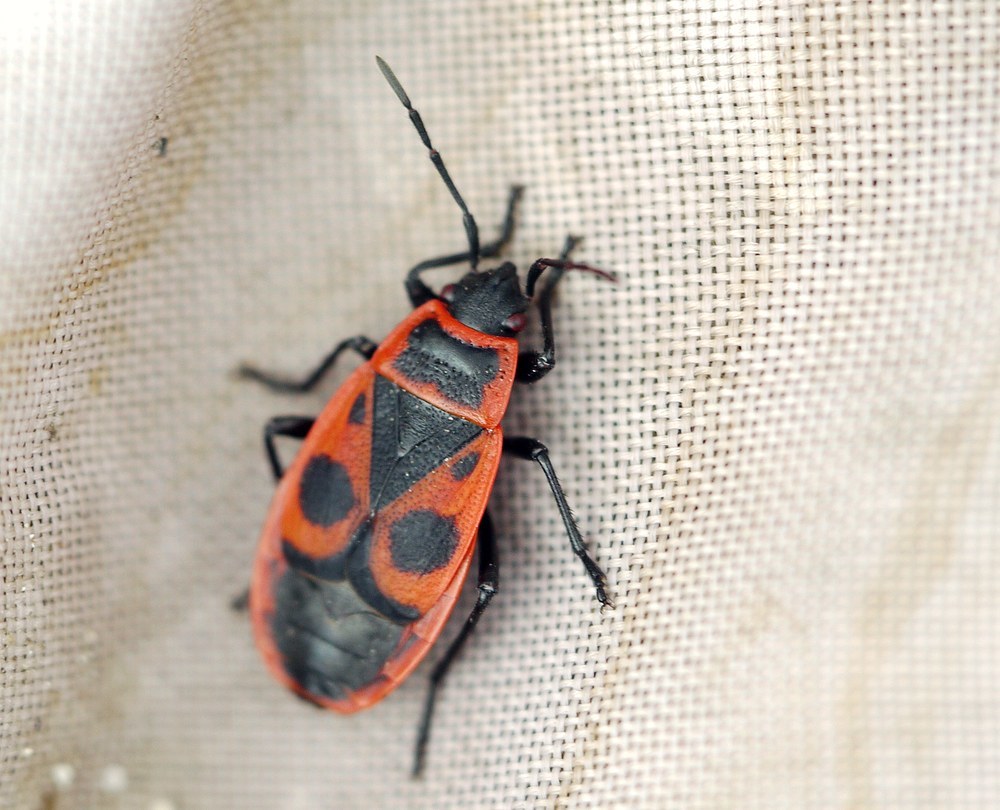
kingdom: Animalia
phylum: Arthropoda
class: Insecta
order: Hemiptera
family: Pyrrhocoridae
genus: Pyrrhocoris
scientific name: Pyrrhocoris apterus
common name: Firebug
